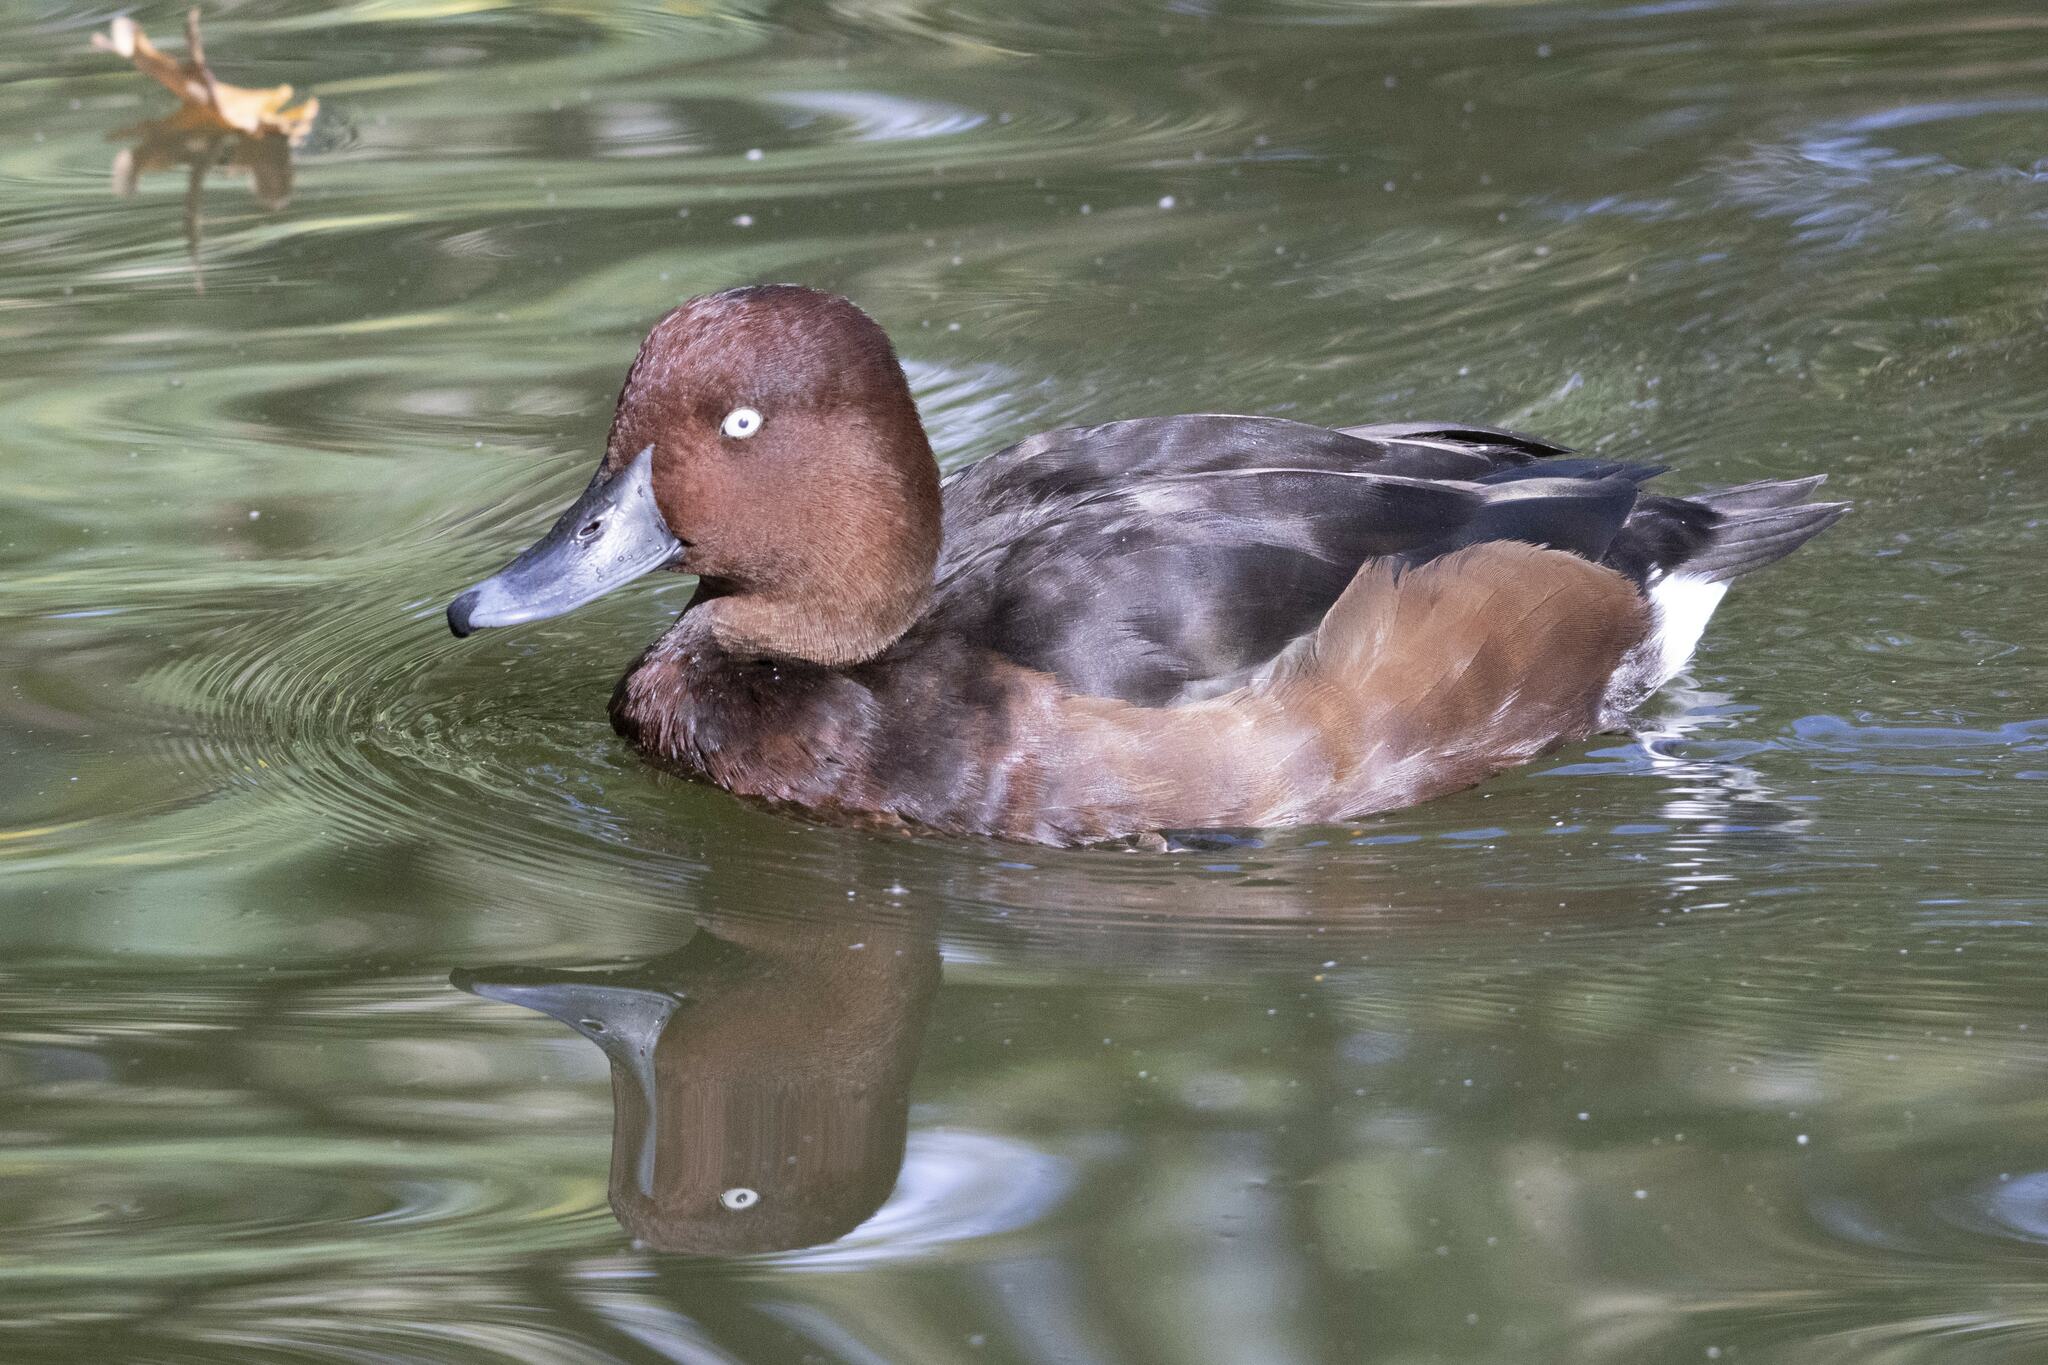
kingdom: Animalia
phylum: Chordata
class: Aves
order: Anseriformes
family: Anatidae
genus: Aythya
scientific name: Aythya nyroca
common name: Ferruginous duck
